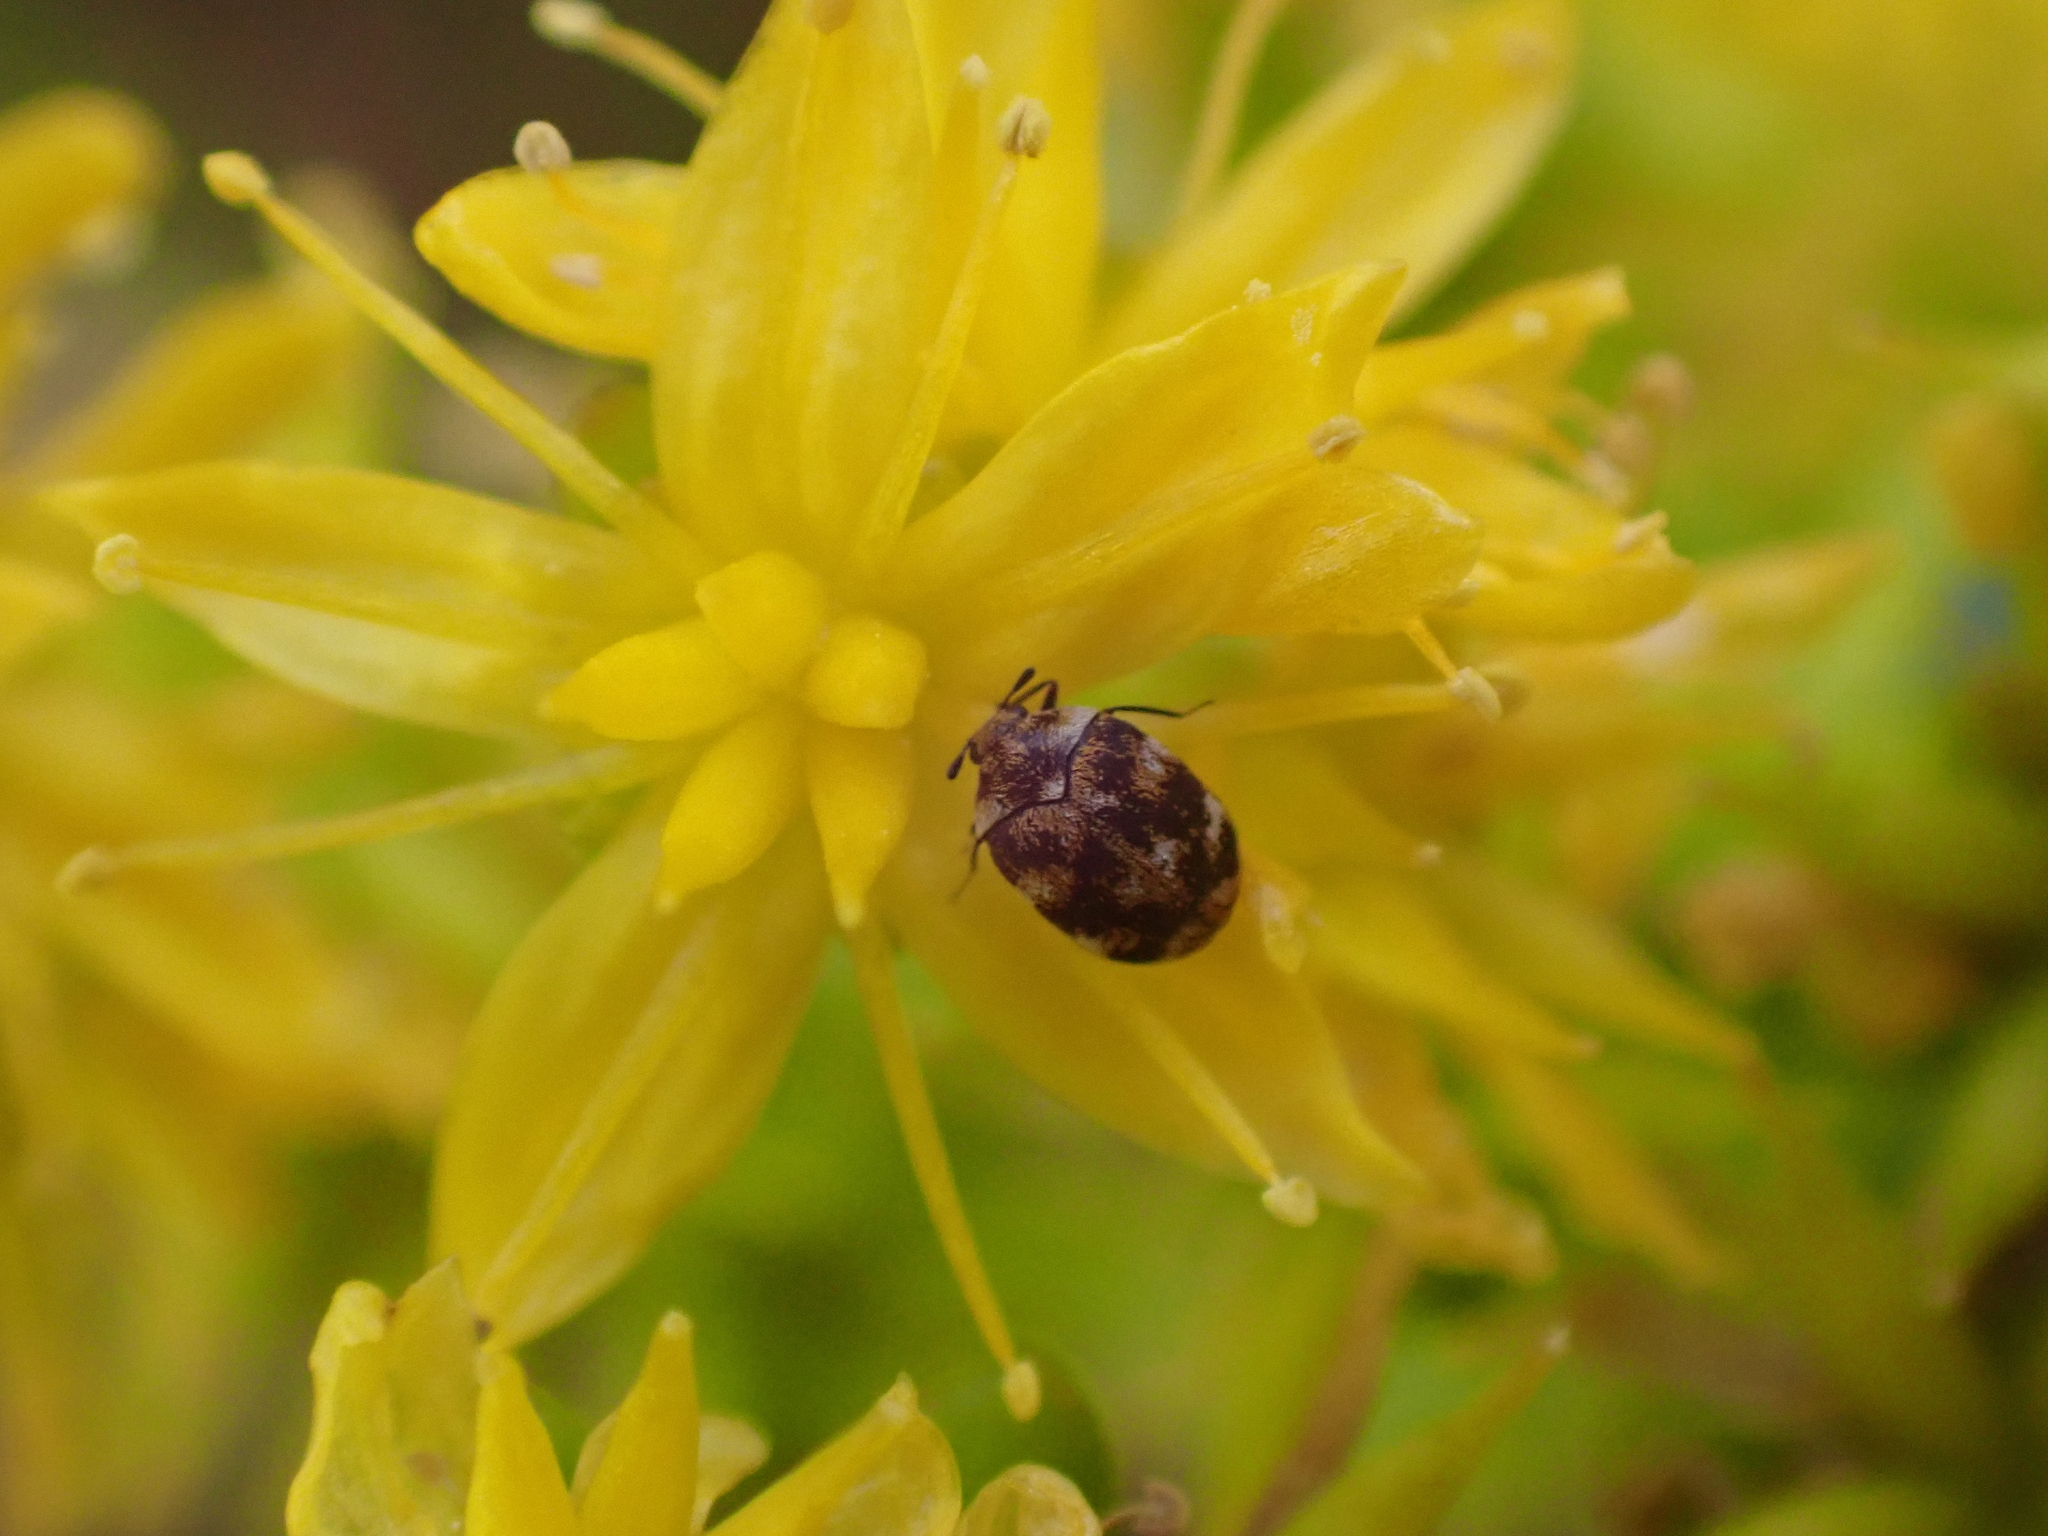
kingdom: Animalia
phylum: Arthropoda
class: Insecta
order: Coleoptera
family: Dermestidae
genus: Anthrenus
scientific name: Anthrenus verbasci
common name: Varied carpet beetle
